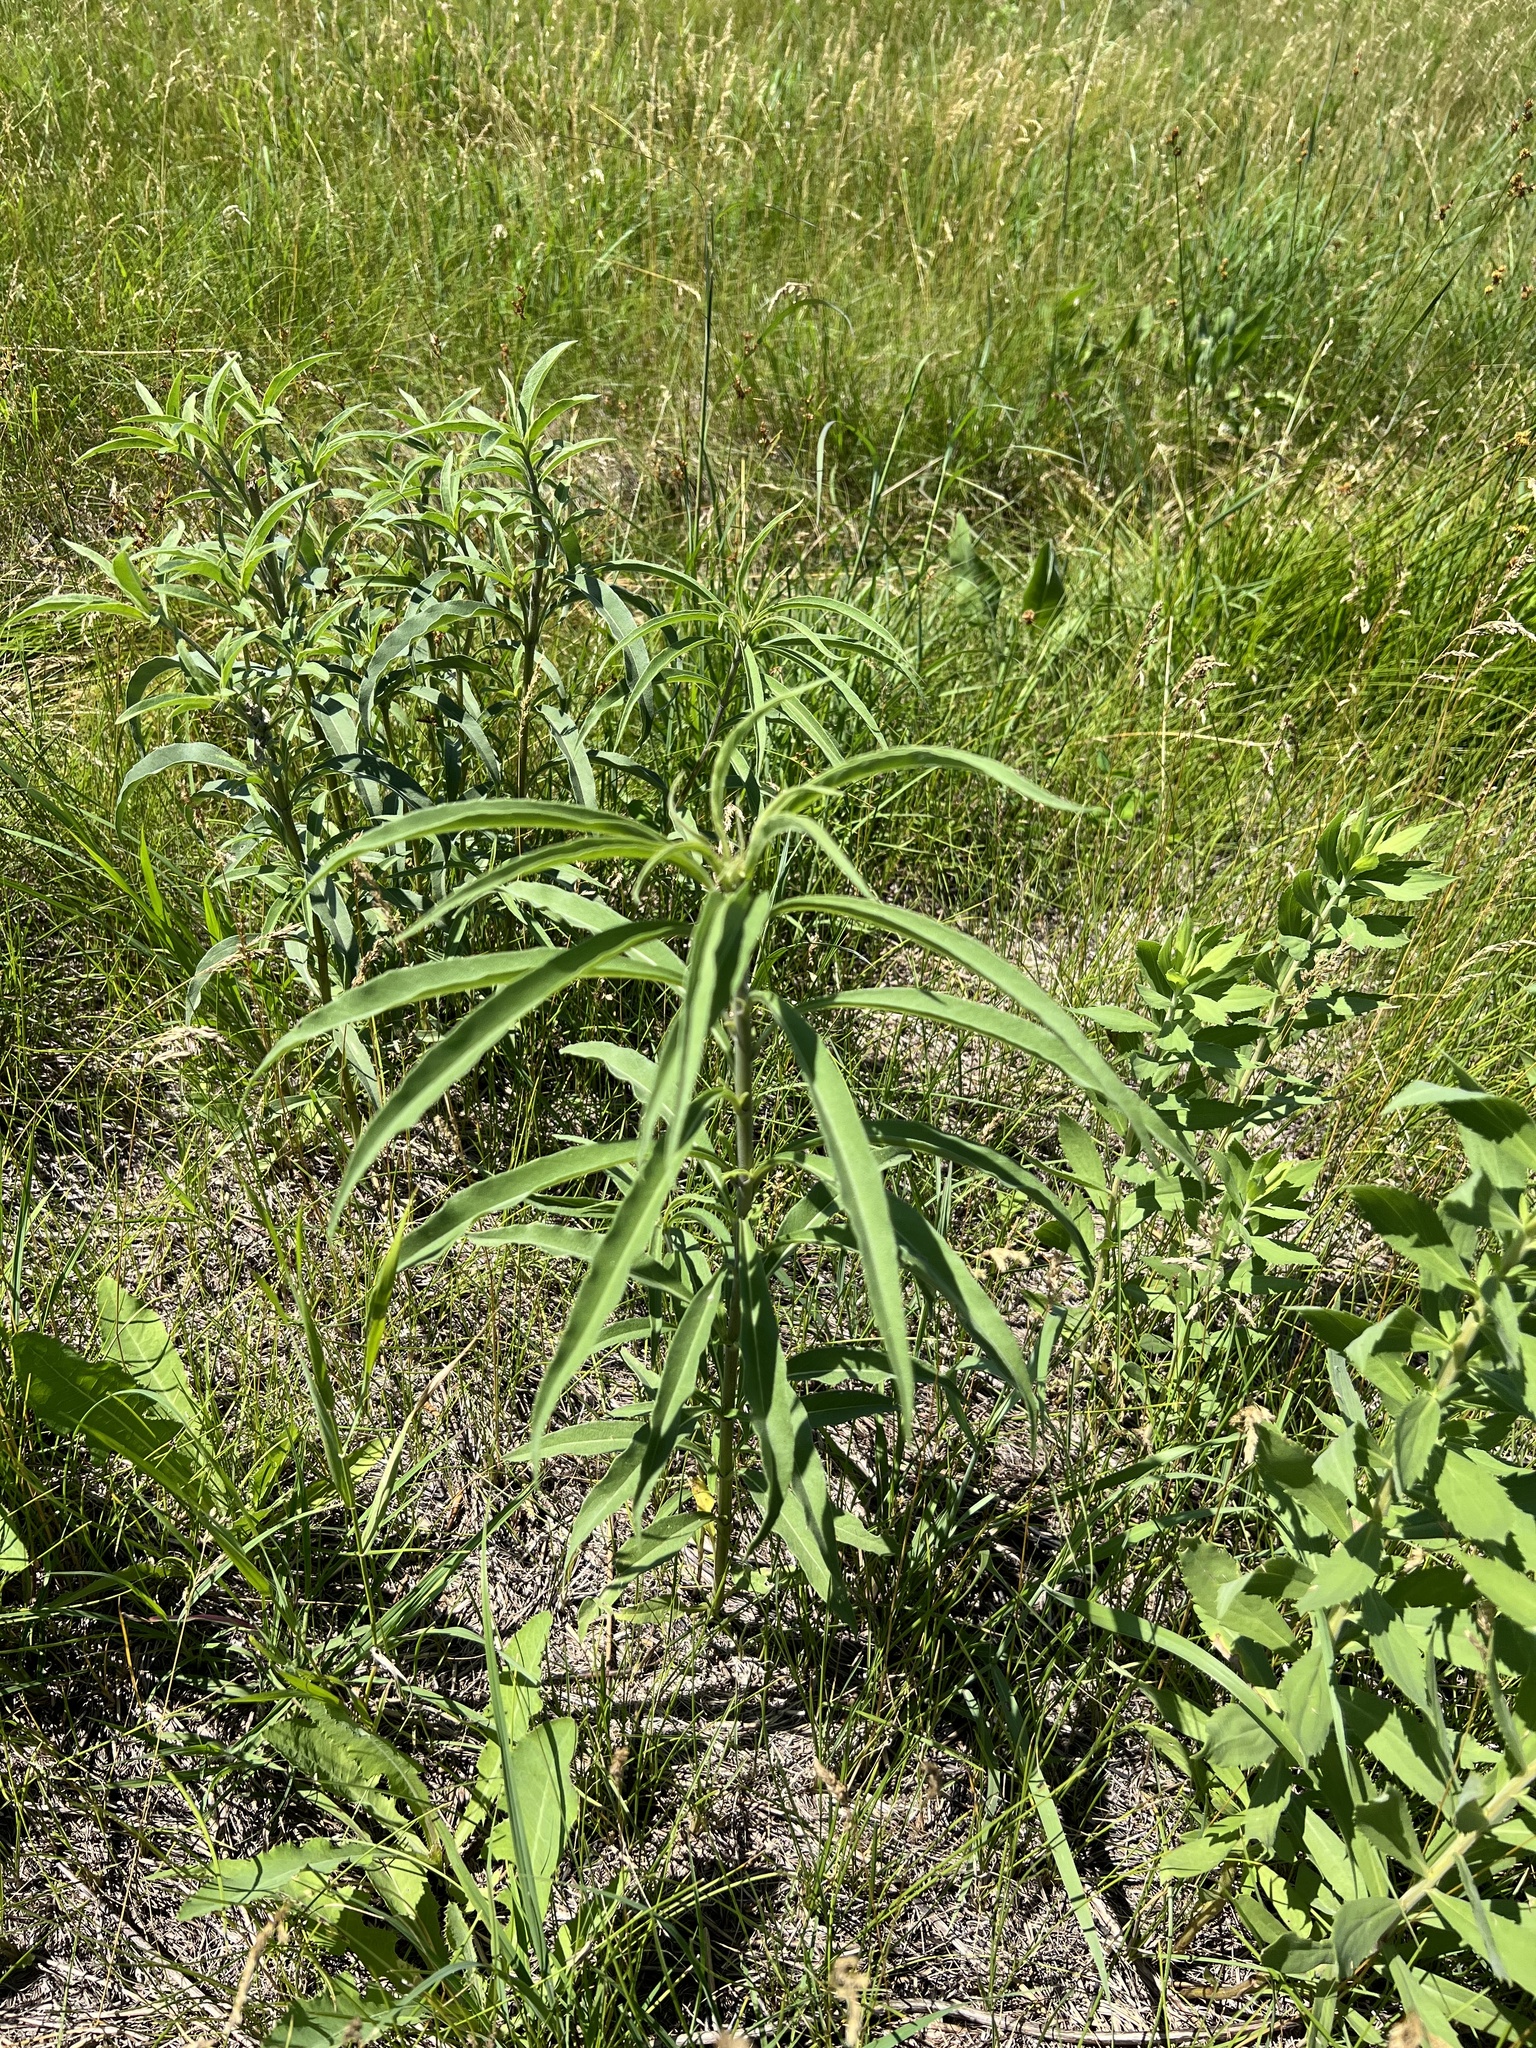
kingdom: Plantae
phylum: Tracheophyta
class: Magnoliopsida
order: Asterales
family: Asteraceae
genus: Helianthus
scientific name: Helianthus maximiliani
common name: Maximilian's sunflower
